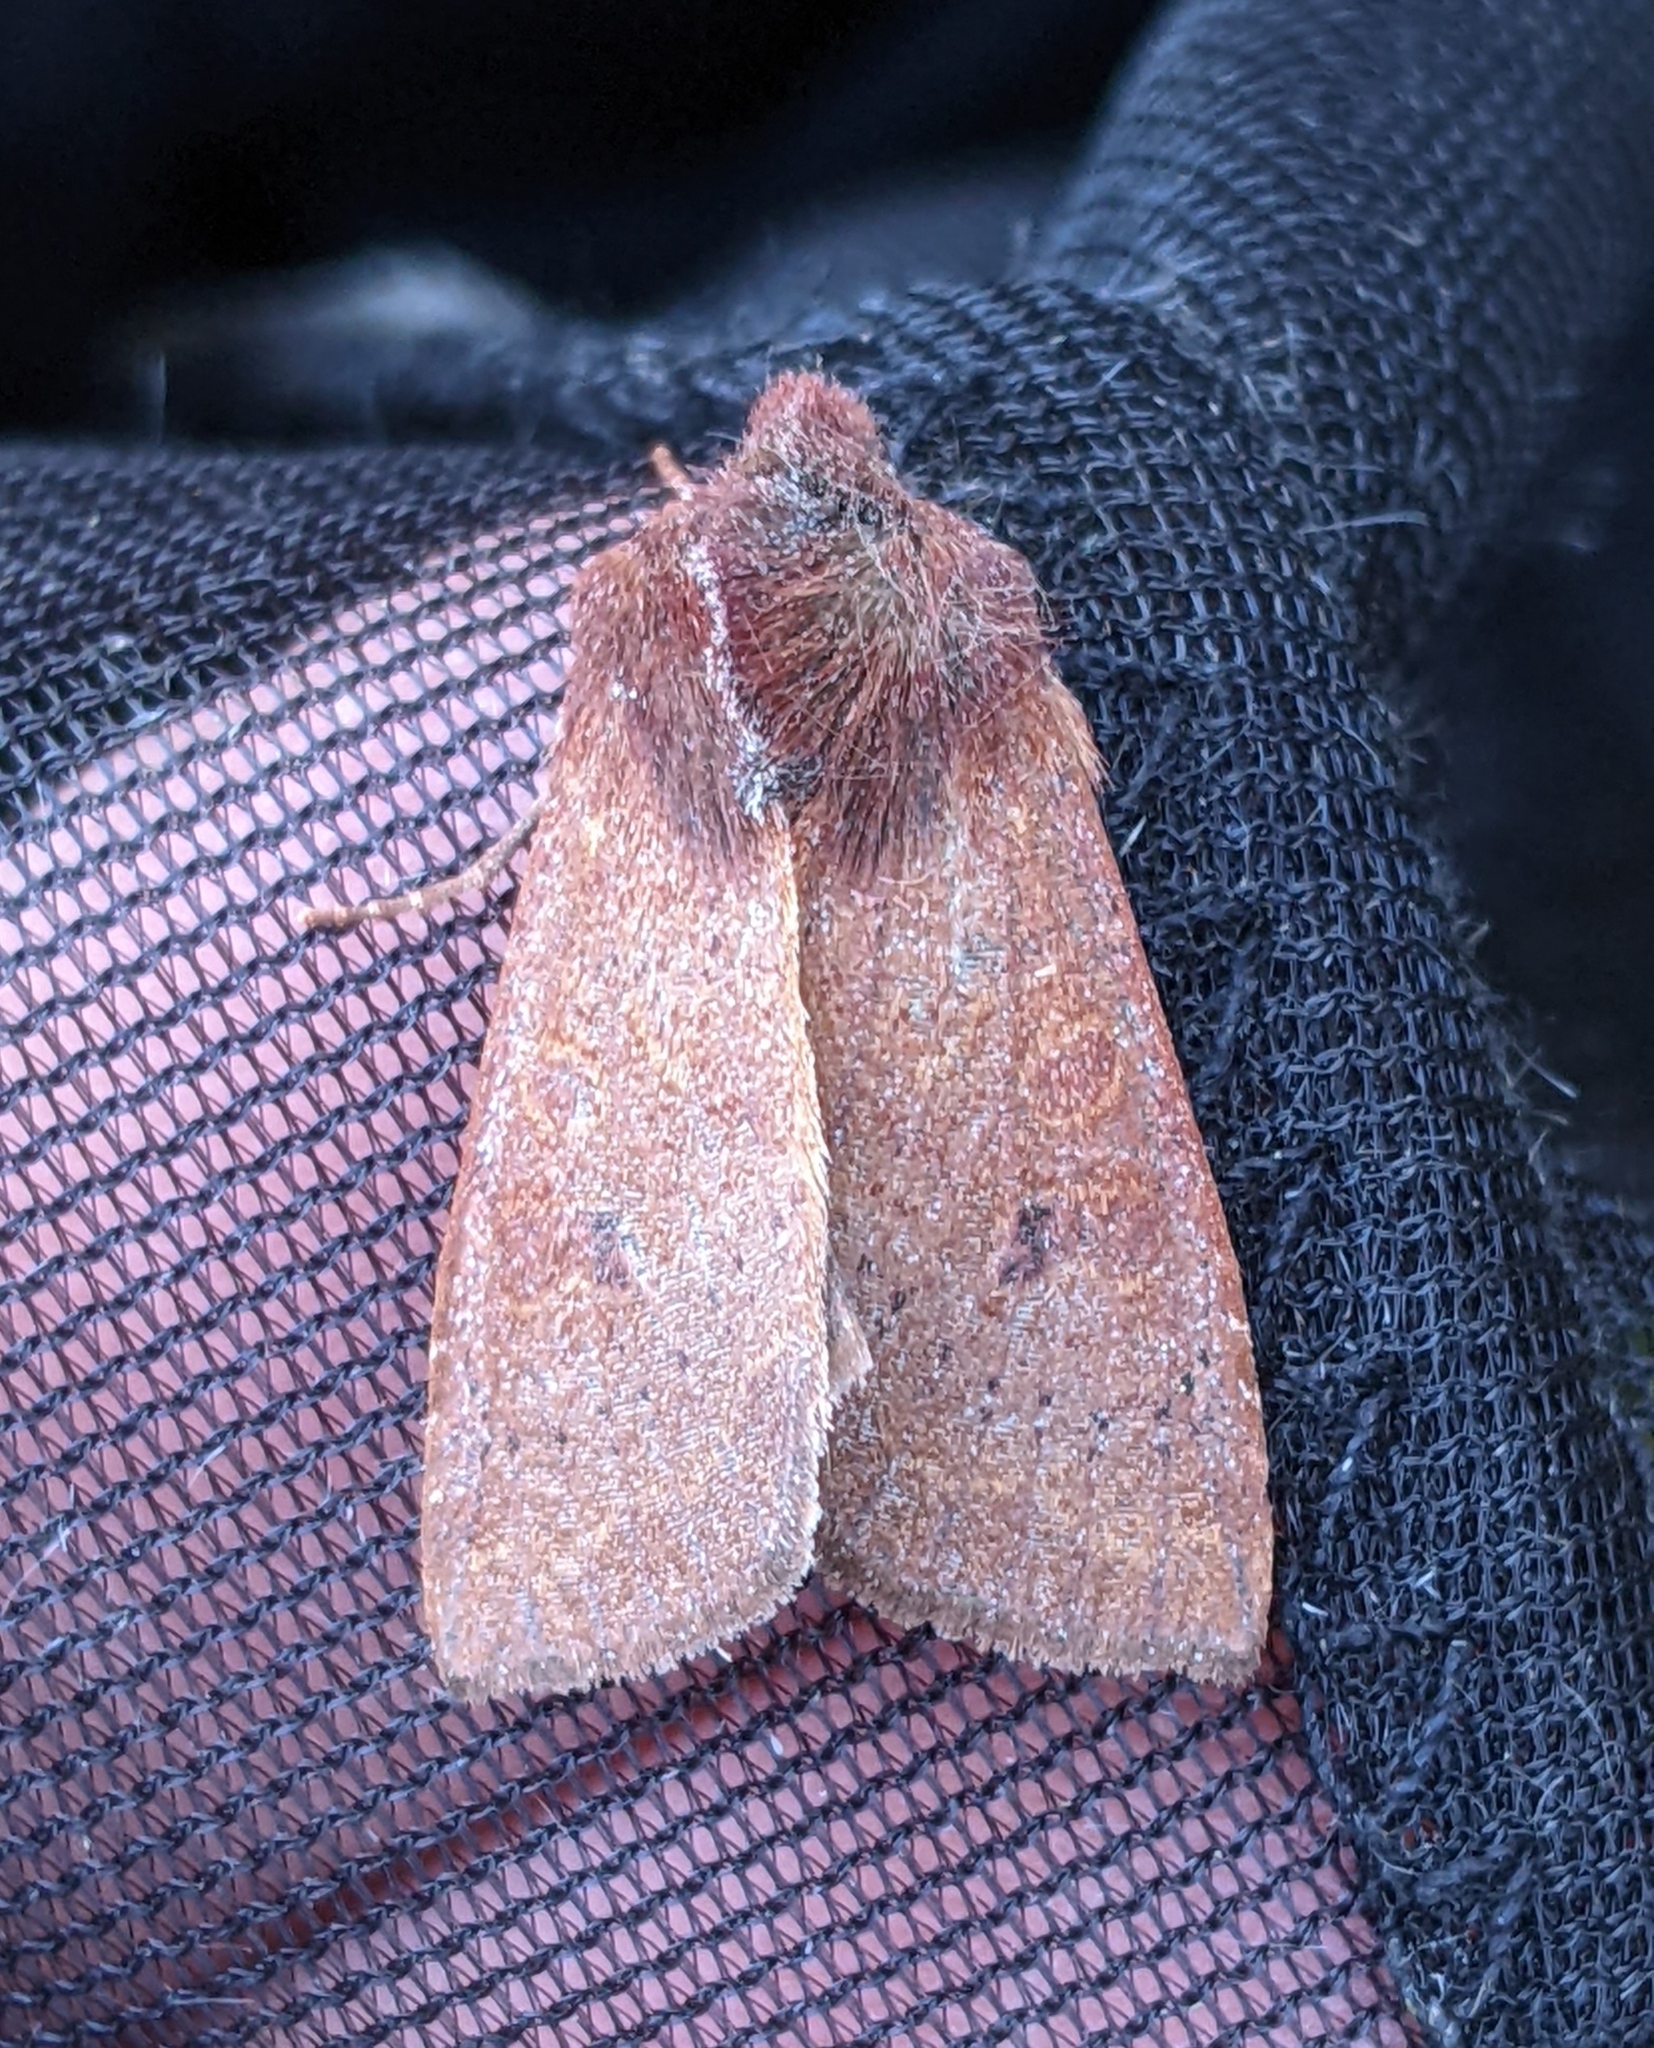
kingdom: Animalia
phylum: Arthropoda
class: Insecta
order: Lepidoptera
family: Noctuidae
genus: Orthosia
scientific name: Orthosia transparens
